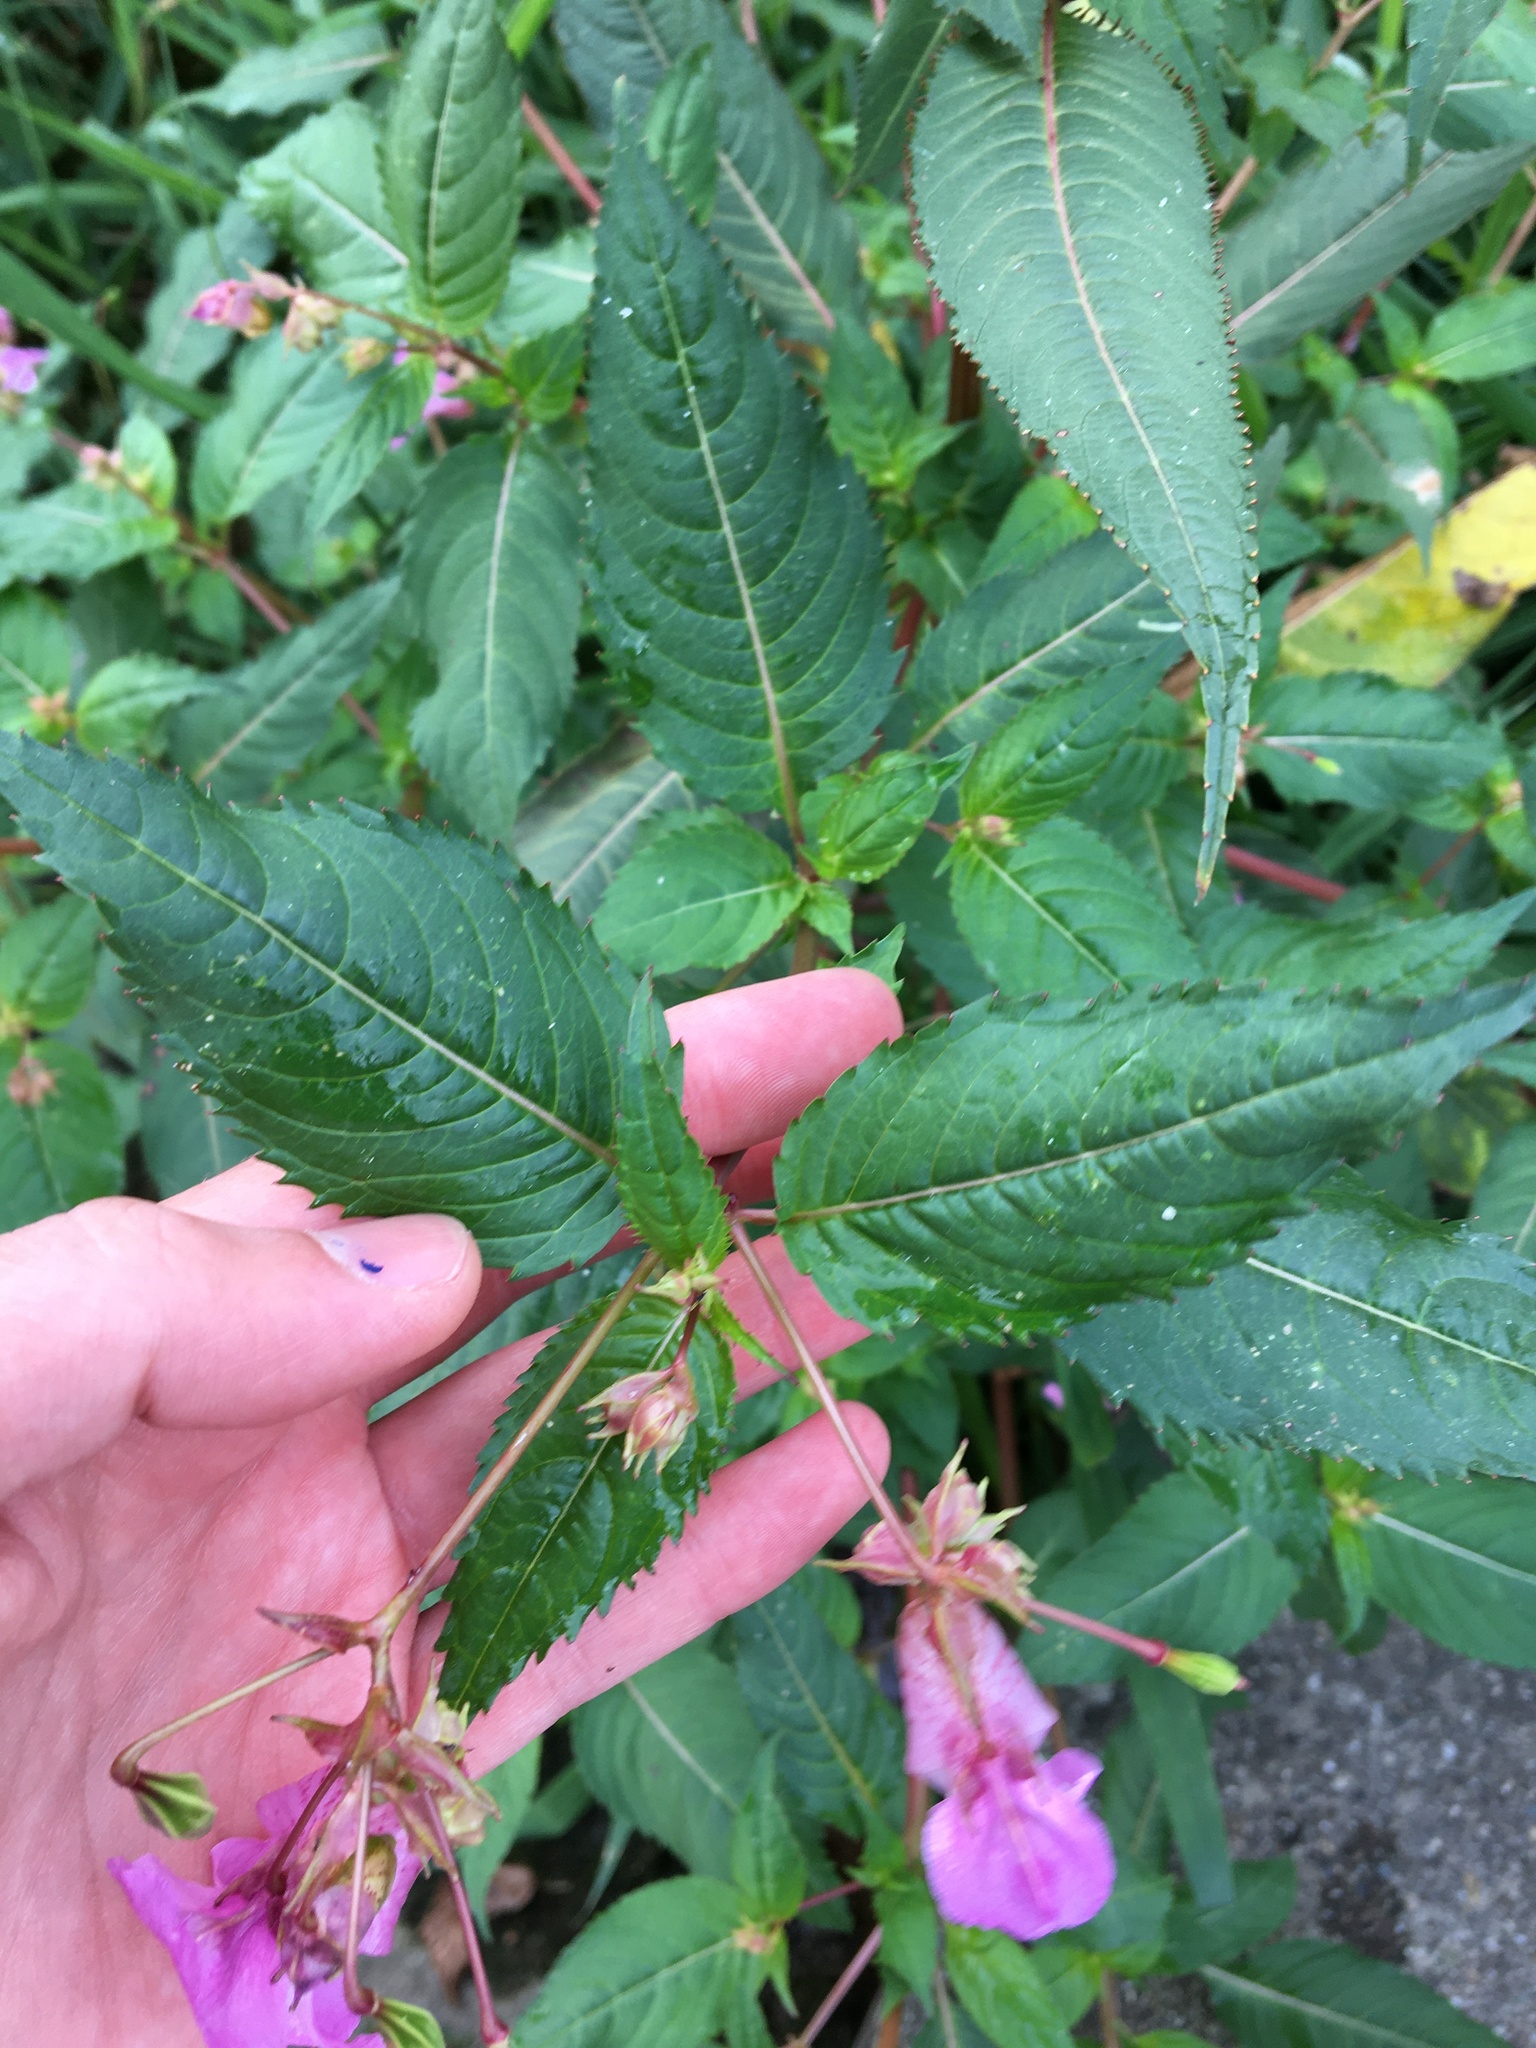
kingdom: Plantae
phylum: Tracheophyta
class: Magnoliopsida
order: Ericales
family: Balsaminaceae
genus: Impatiens
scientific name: Impatiens glandulifera
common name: Himalayan balsam
